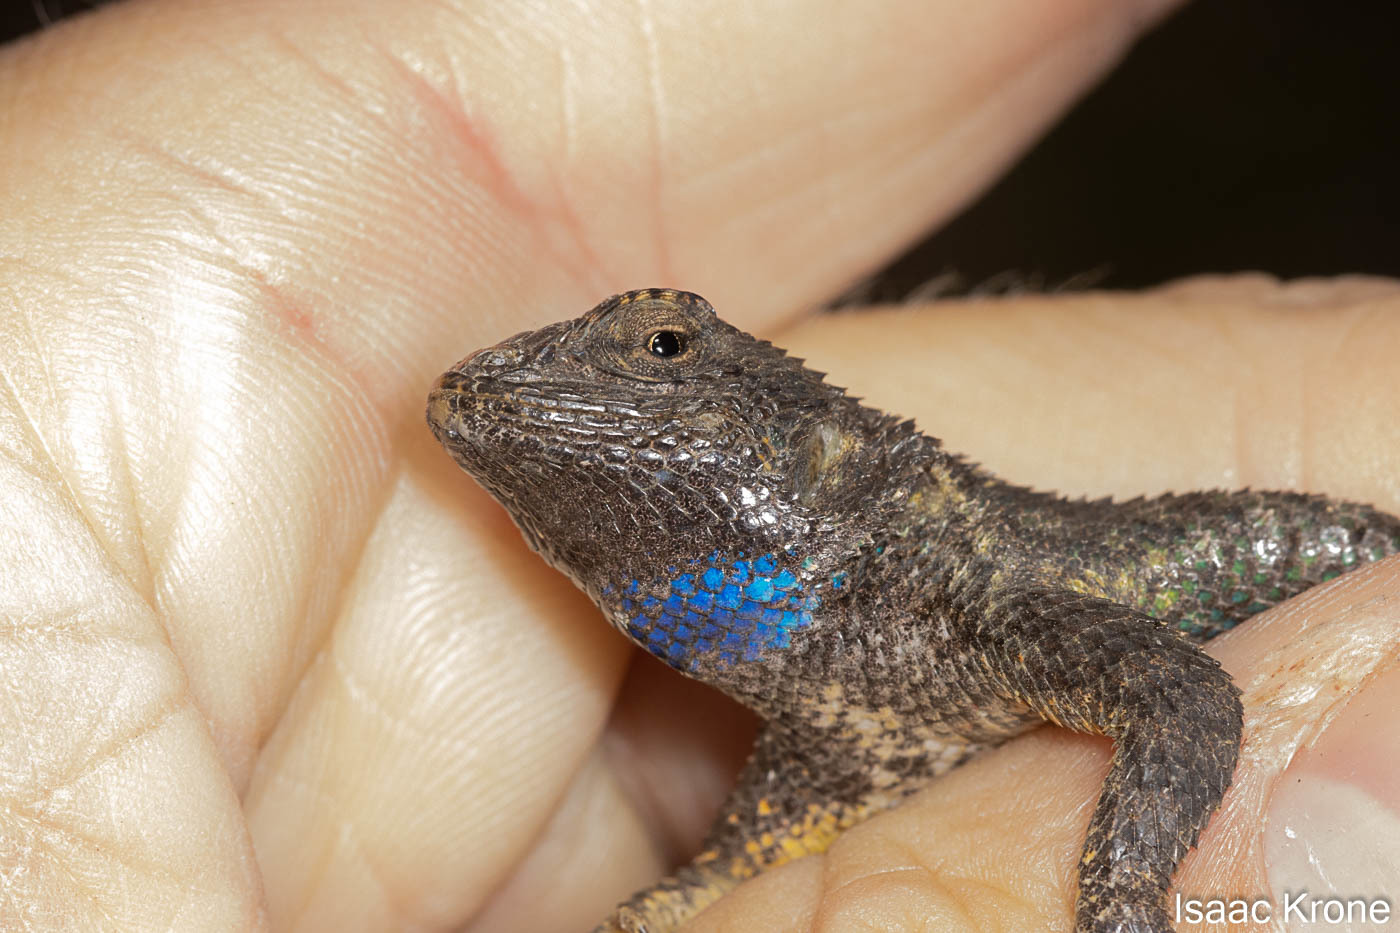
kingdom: Animalia
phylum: Chordata
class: Squamata
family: Phrynosomatidae
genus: Sceloporus
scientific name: Sceloporus occidentalis
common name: Western fence lizard
